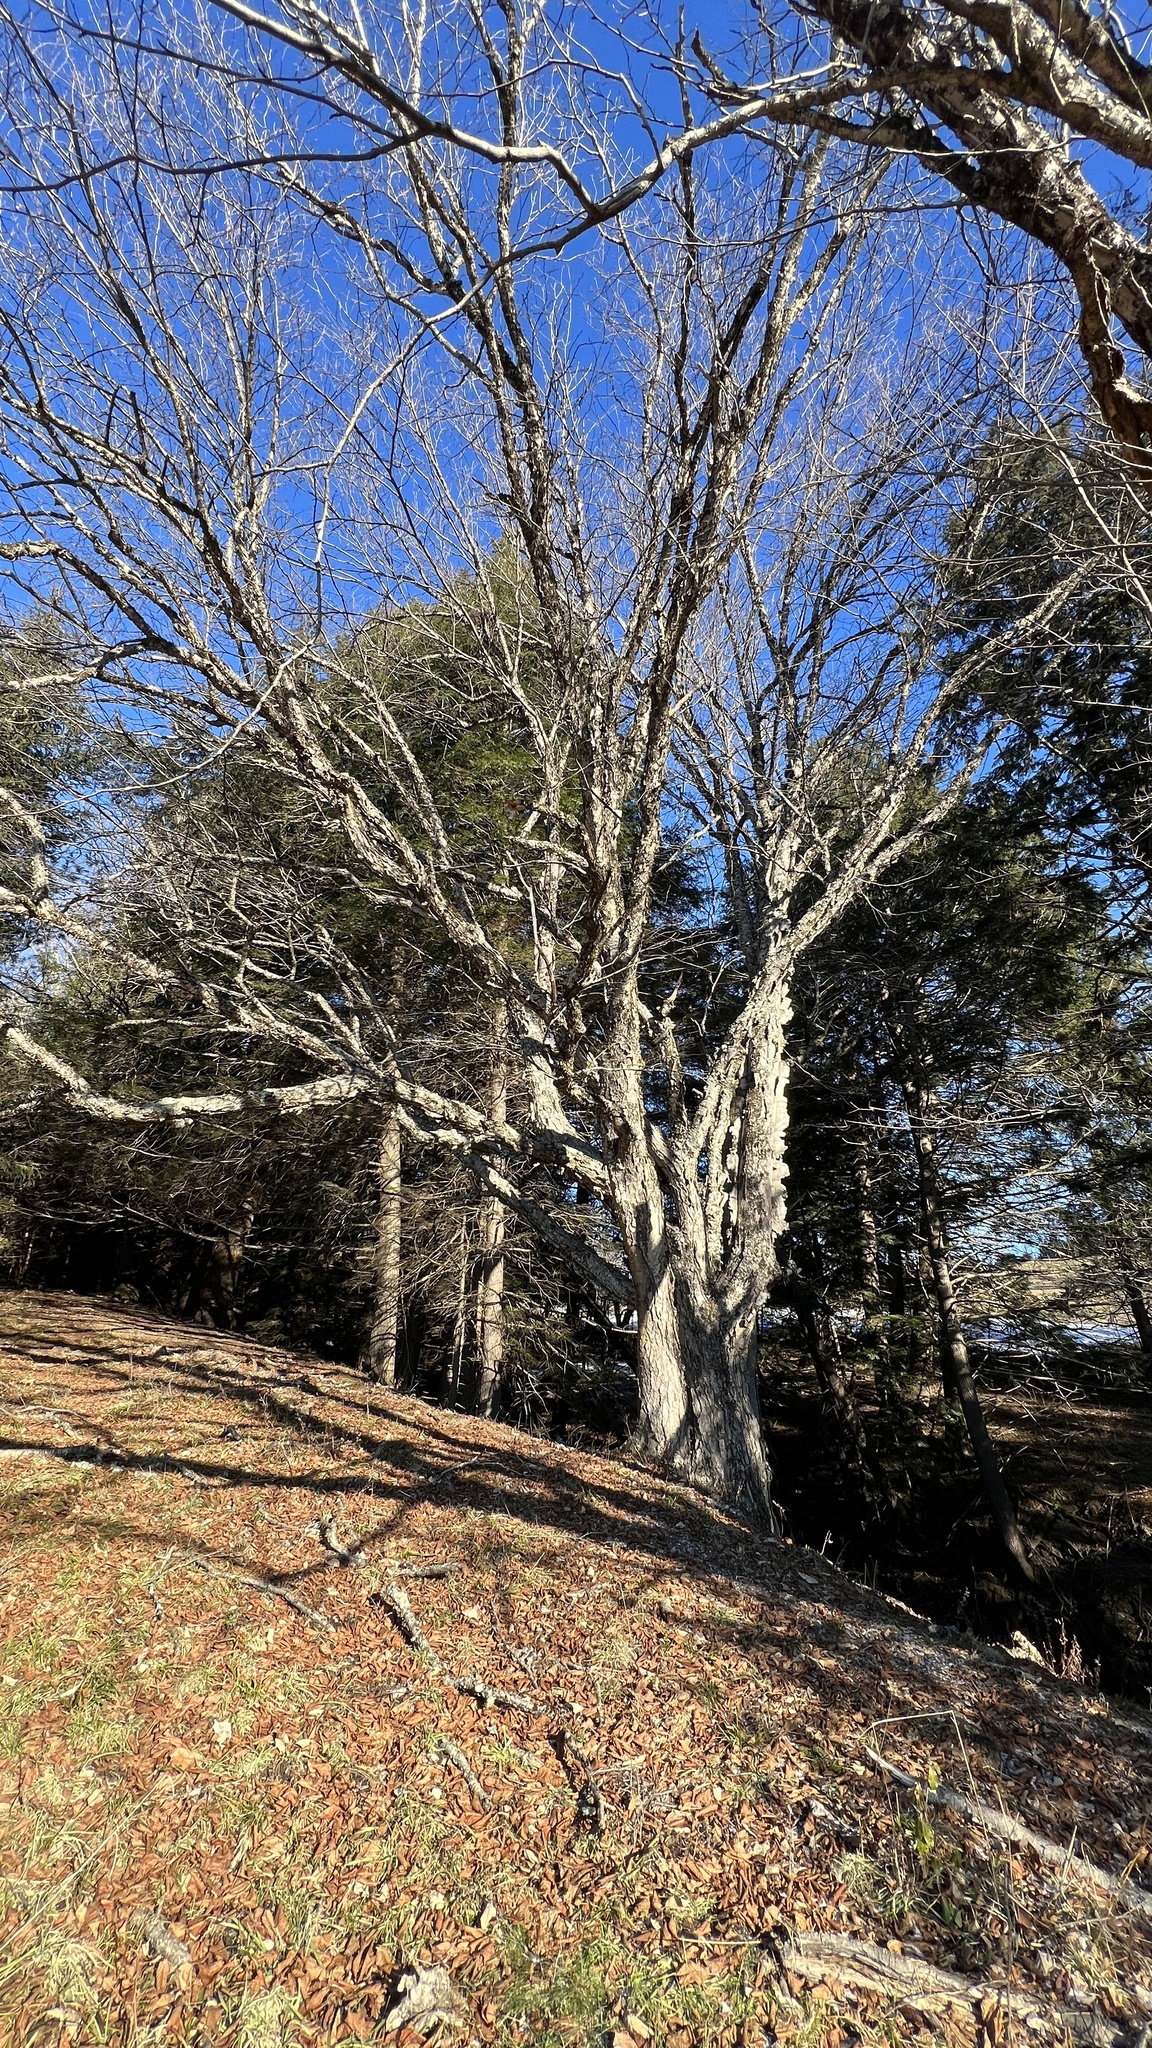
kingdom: Plantae
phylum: Tracheophyta
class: Magnoliopsida
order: Fagales
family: Betulaceae
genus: Betula
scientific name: Betula alleghaniensis
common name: Yellow birch
